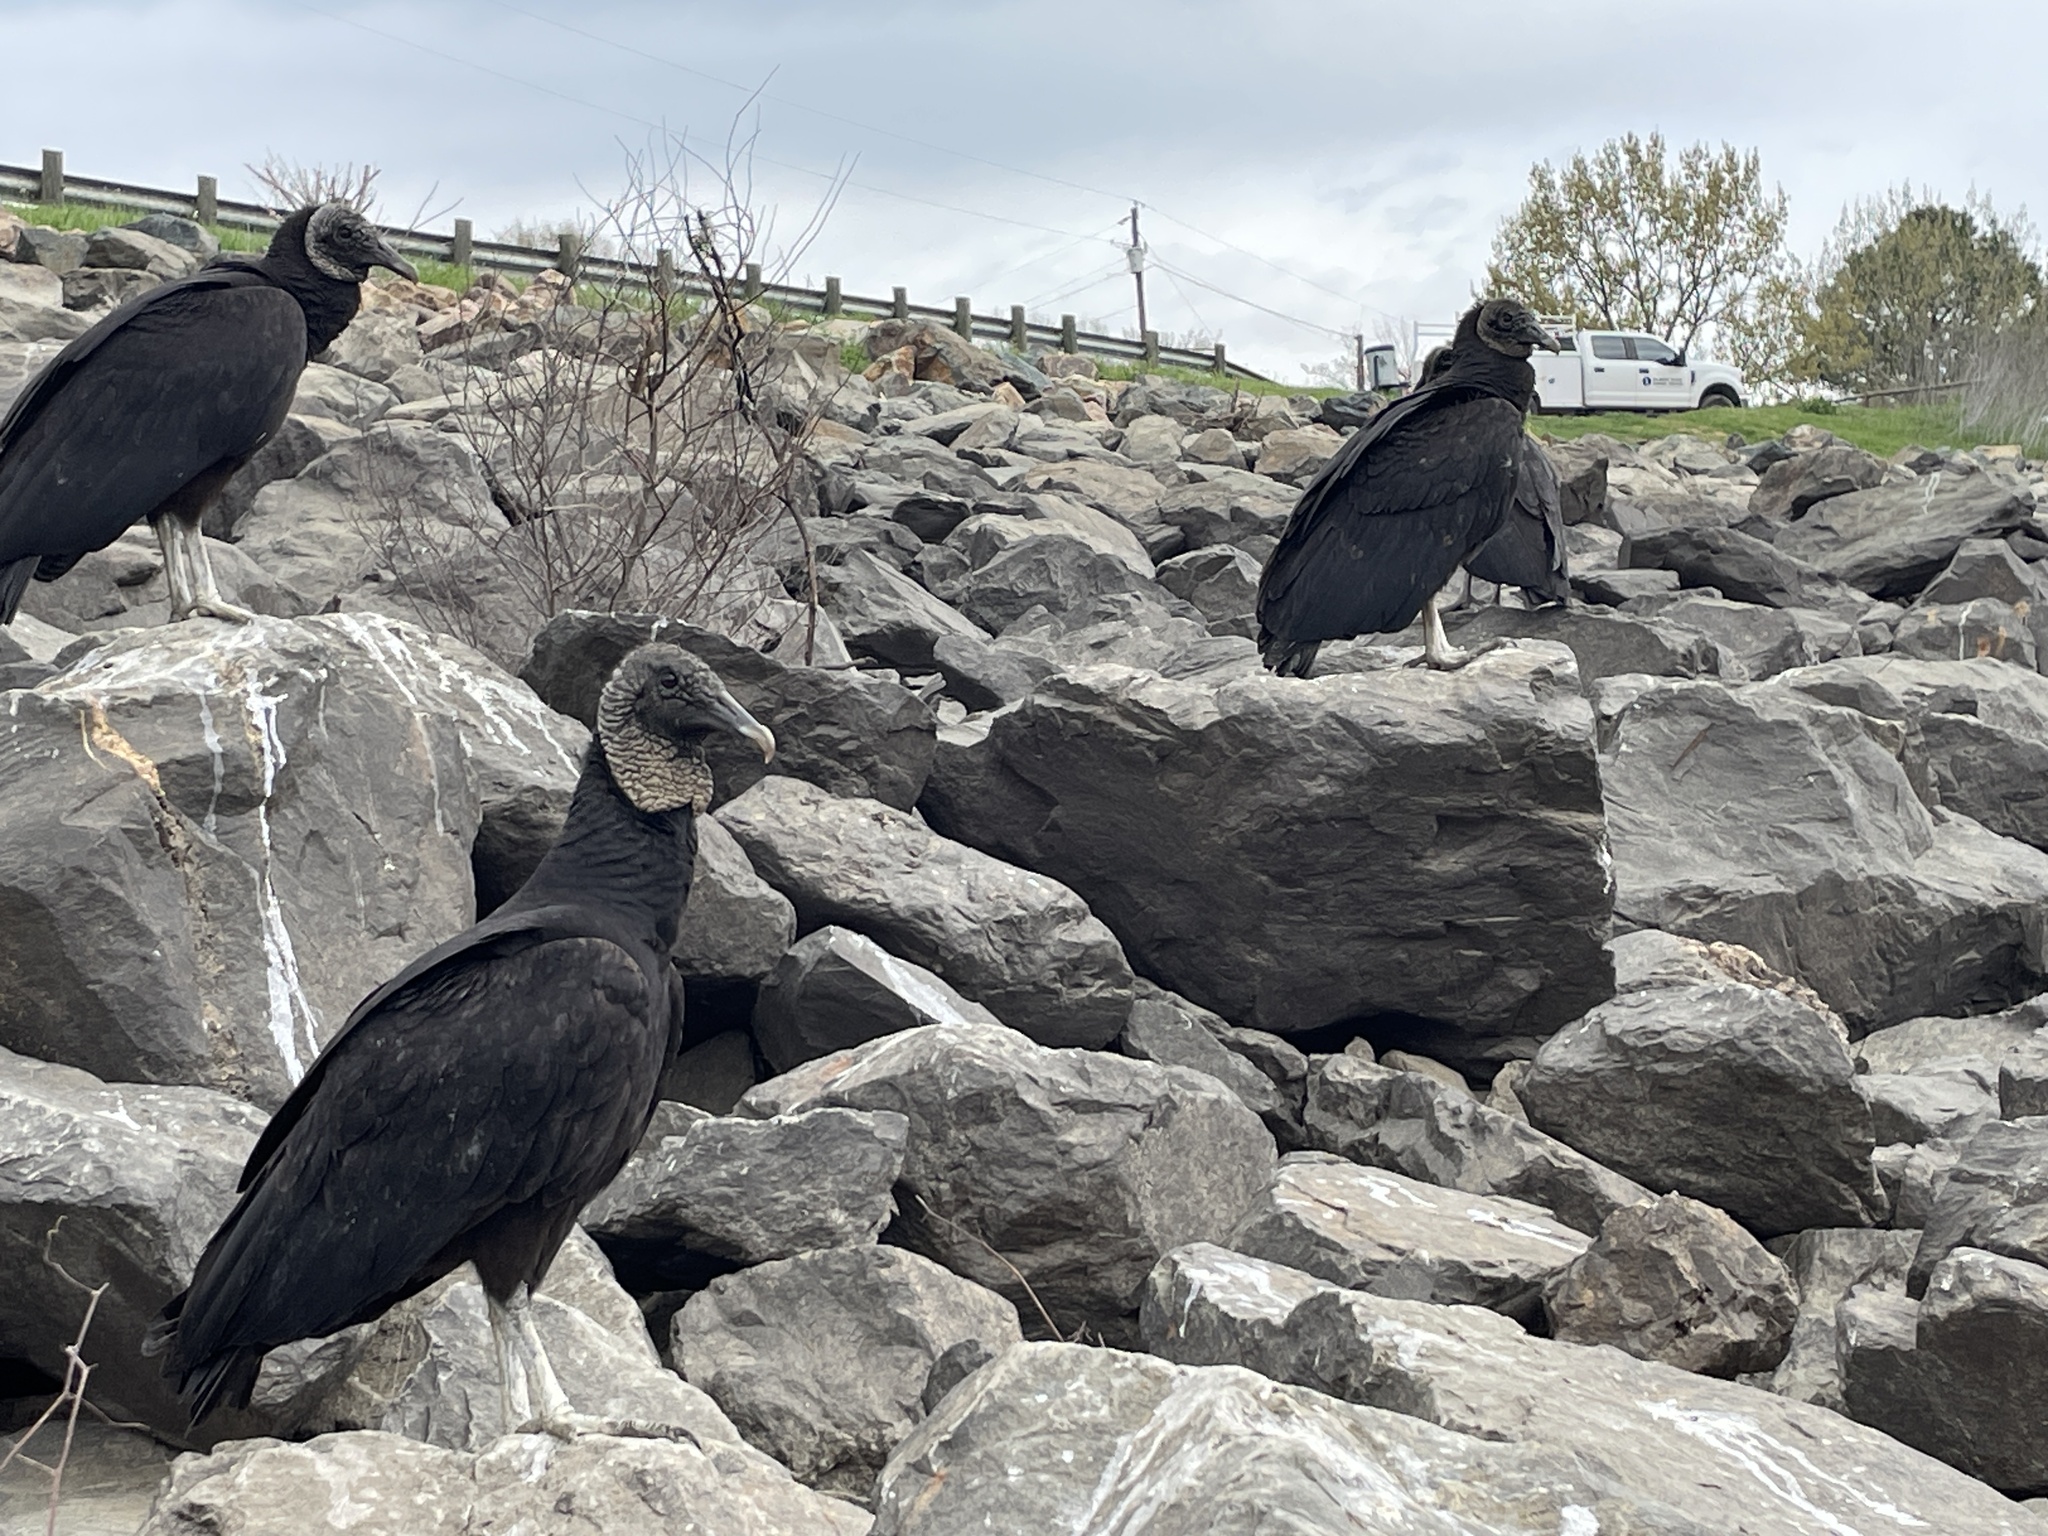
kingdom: Animalia
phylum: Chordata
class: Aves
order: Accipitriformes
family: Cathartidae
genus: Coragyps
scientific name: Coragyps atratus
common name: Black vulture
